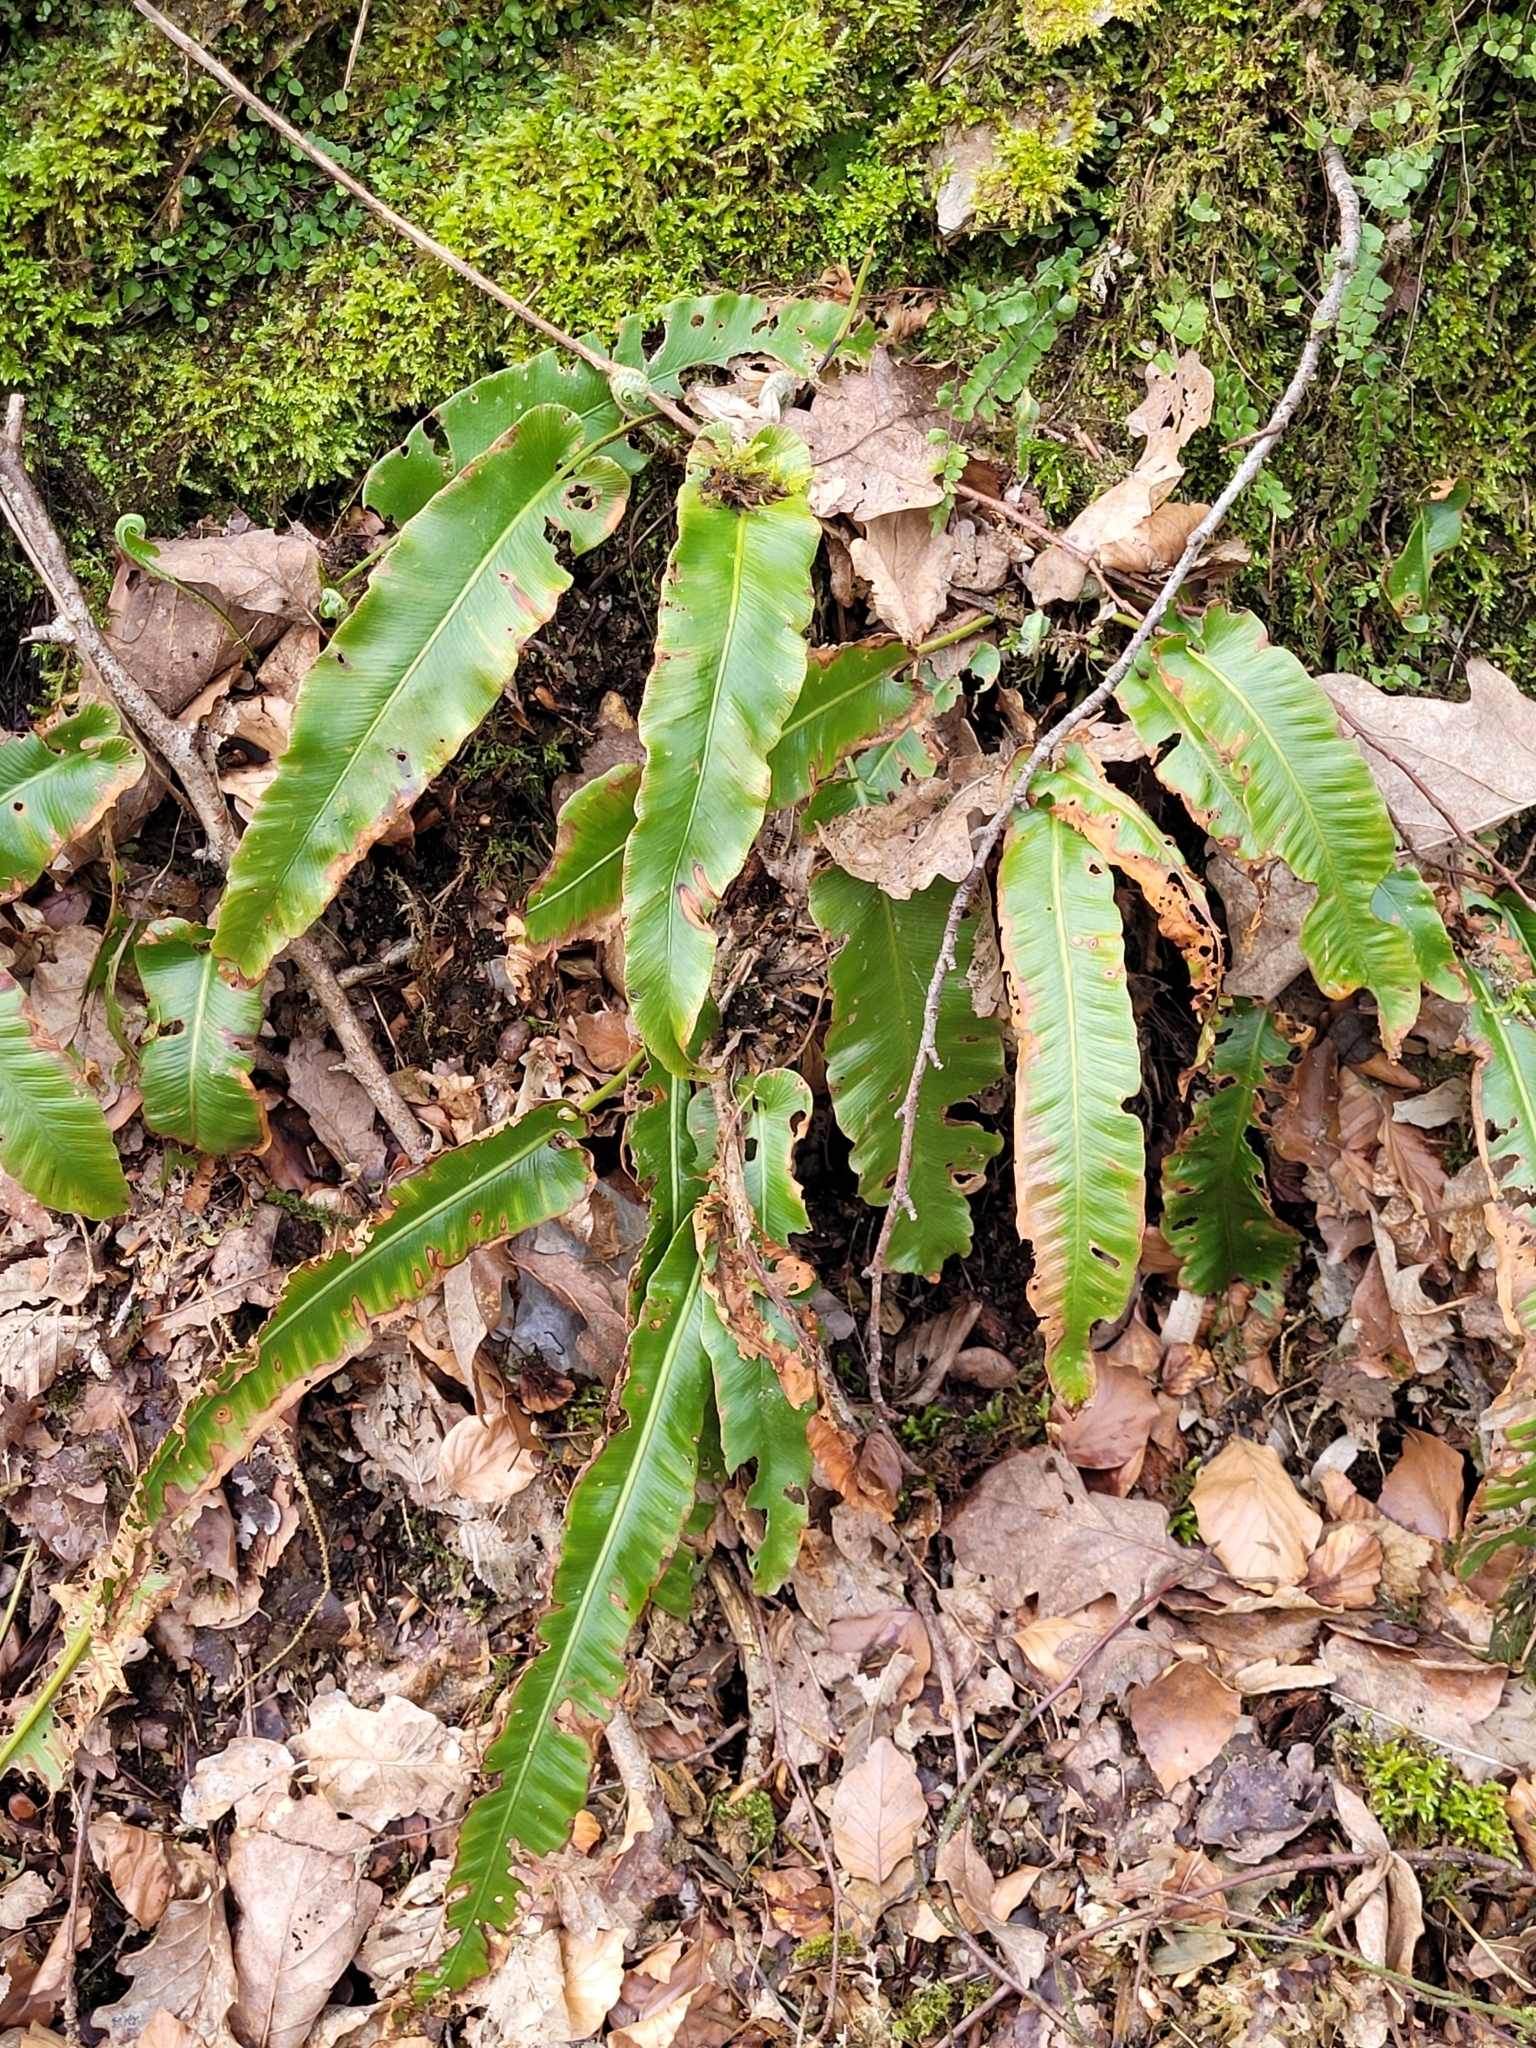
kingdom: Plantae
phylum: Tracheophyta
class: Polypodiopsida
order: Polypodiales
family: Aspleniaceae
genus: Asplenium
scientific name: Asplenium scolopendrium
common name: Hart's-tongue fern
